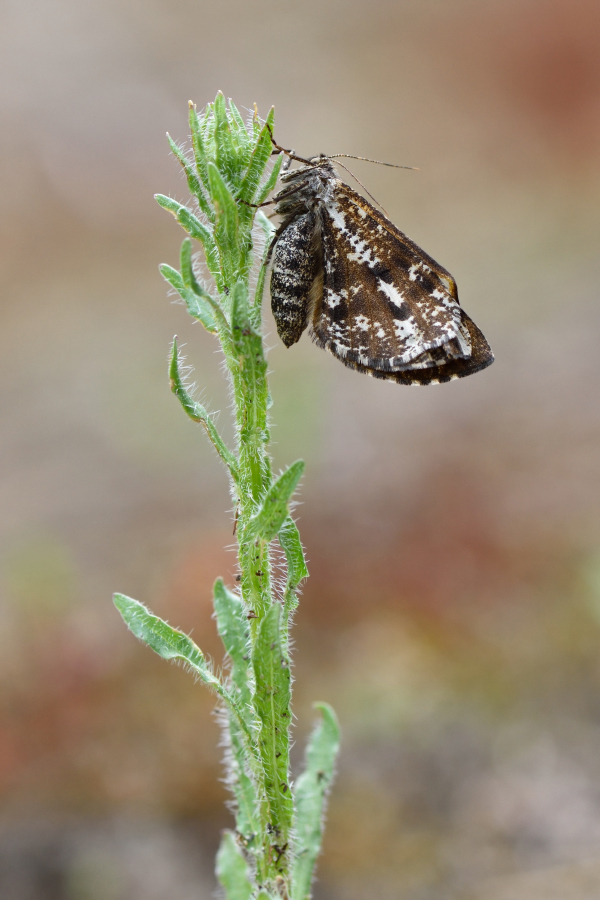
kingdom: Animalia
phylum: Arthropoda
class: Insecta
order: Lepidoptera
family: Geometridae
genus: Bupalus
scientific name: Bupalus piniaria
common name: Bordered white
